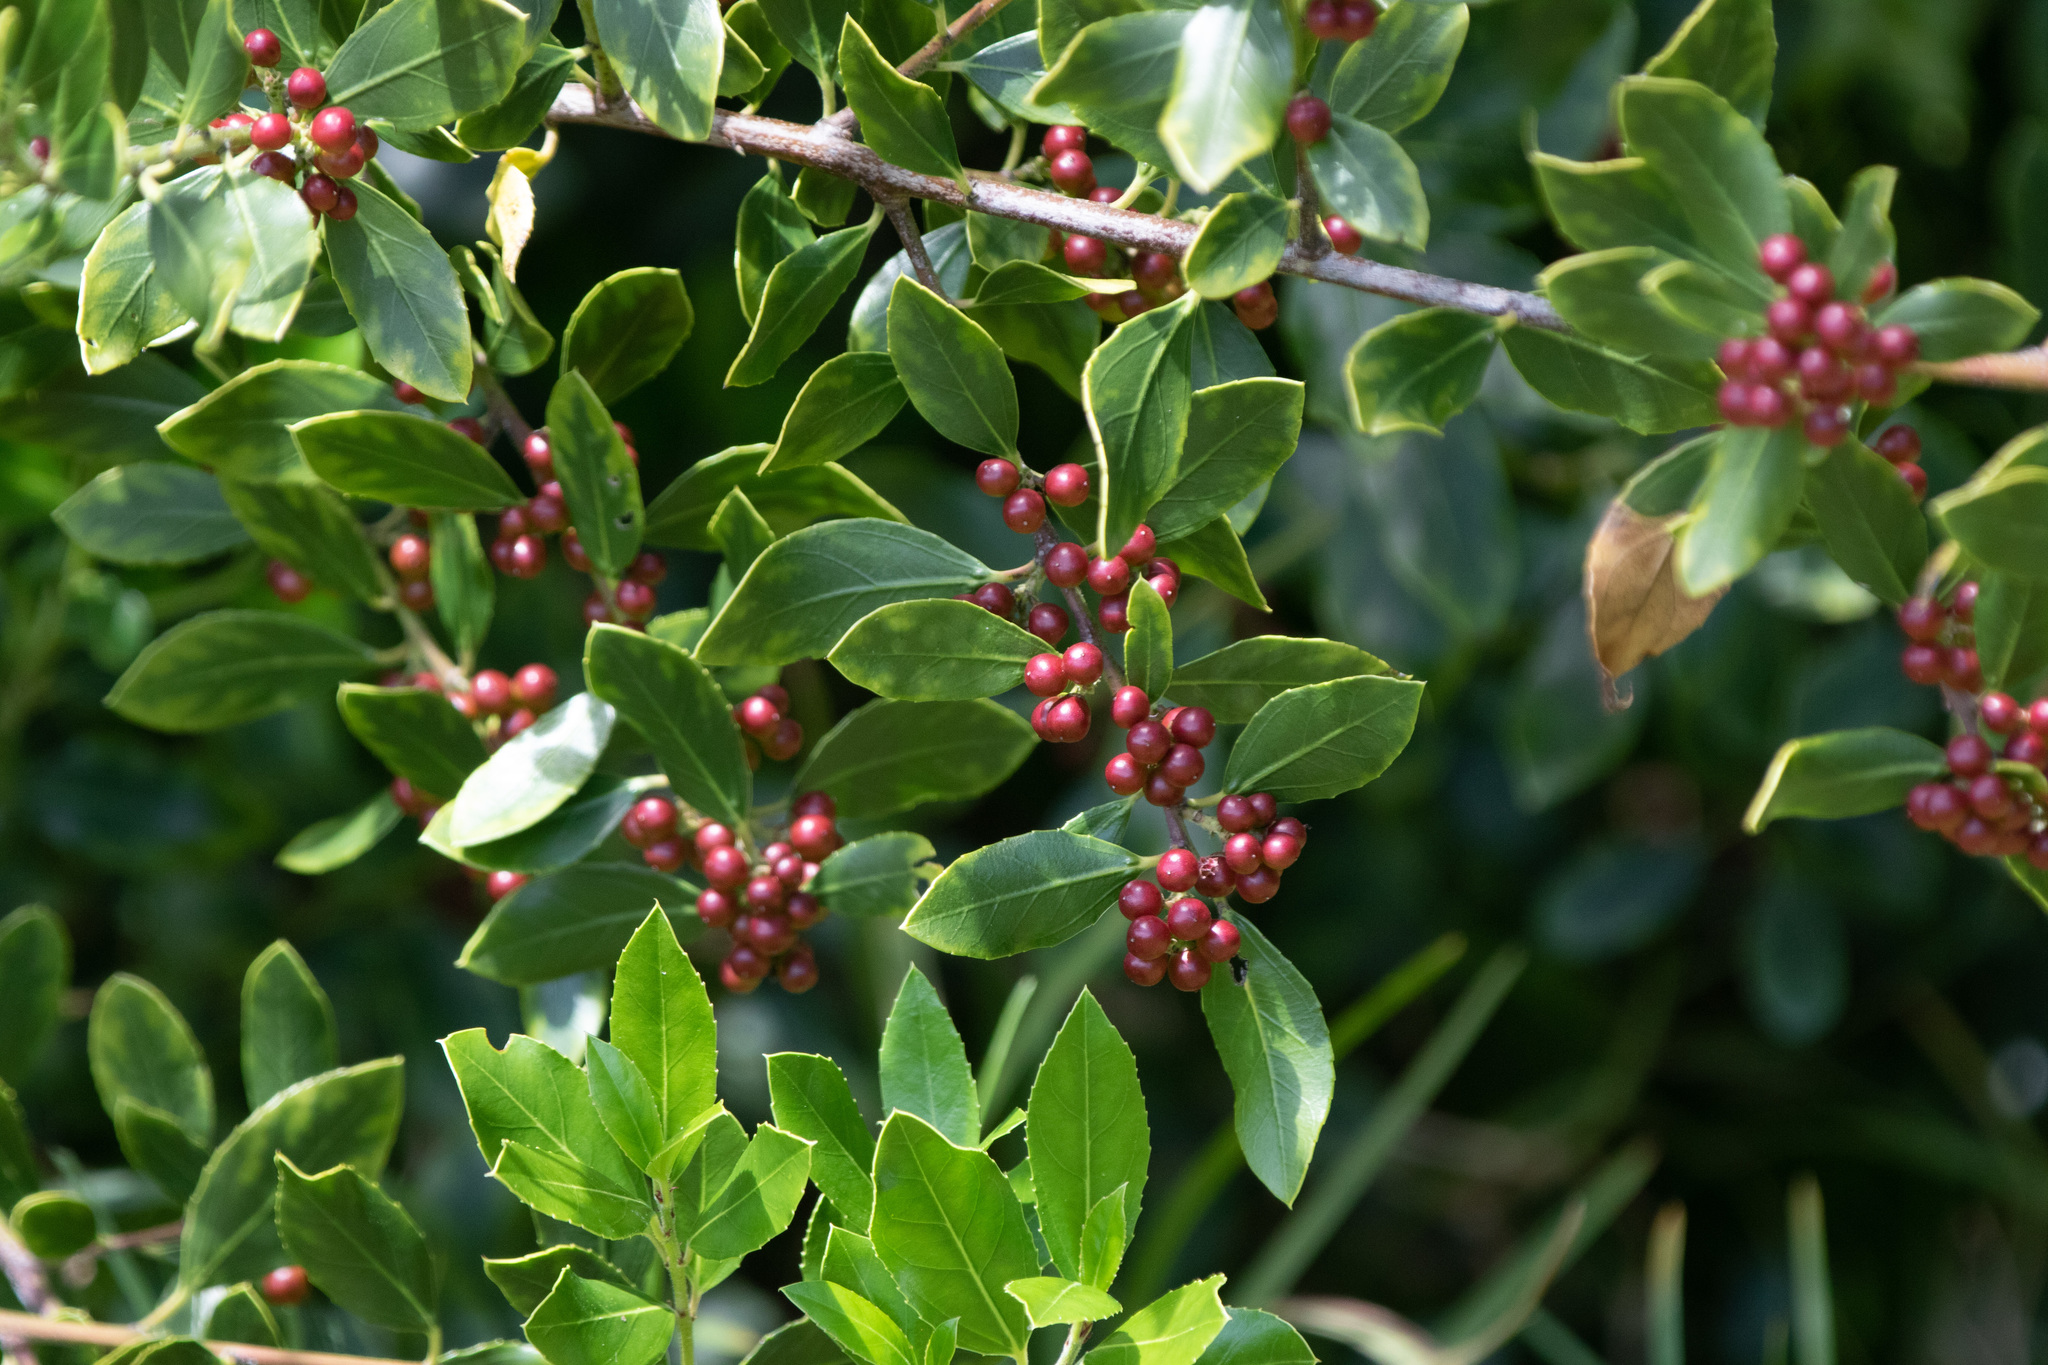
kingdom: Plantae
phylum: Tracheophyta
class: Magnoliopsida
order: Rosales
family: Rhamnaceae
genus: Rhamnus
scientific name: Rhamnus alaternus
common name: Mediterranean buckthorn
